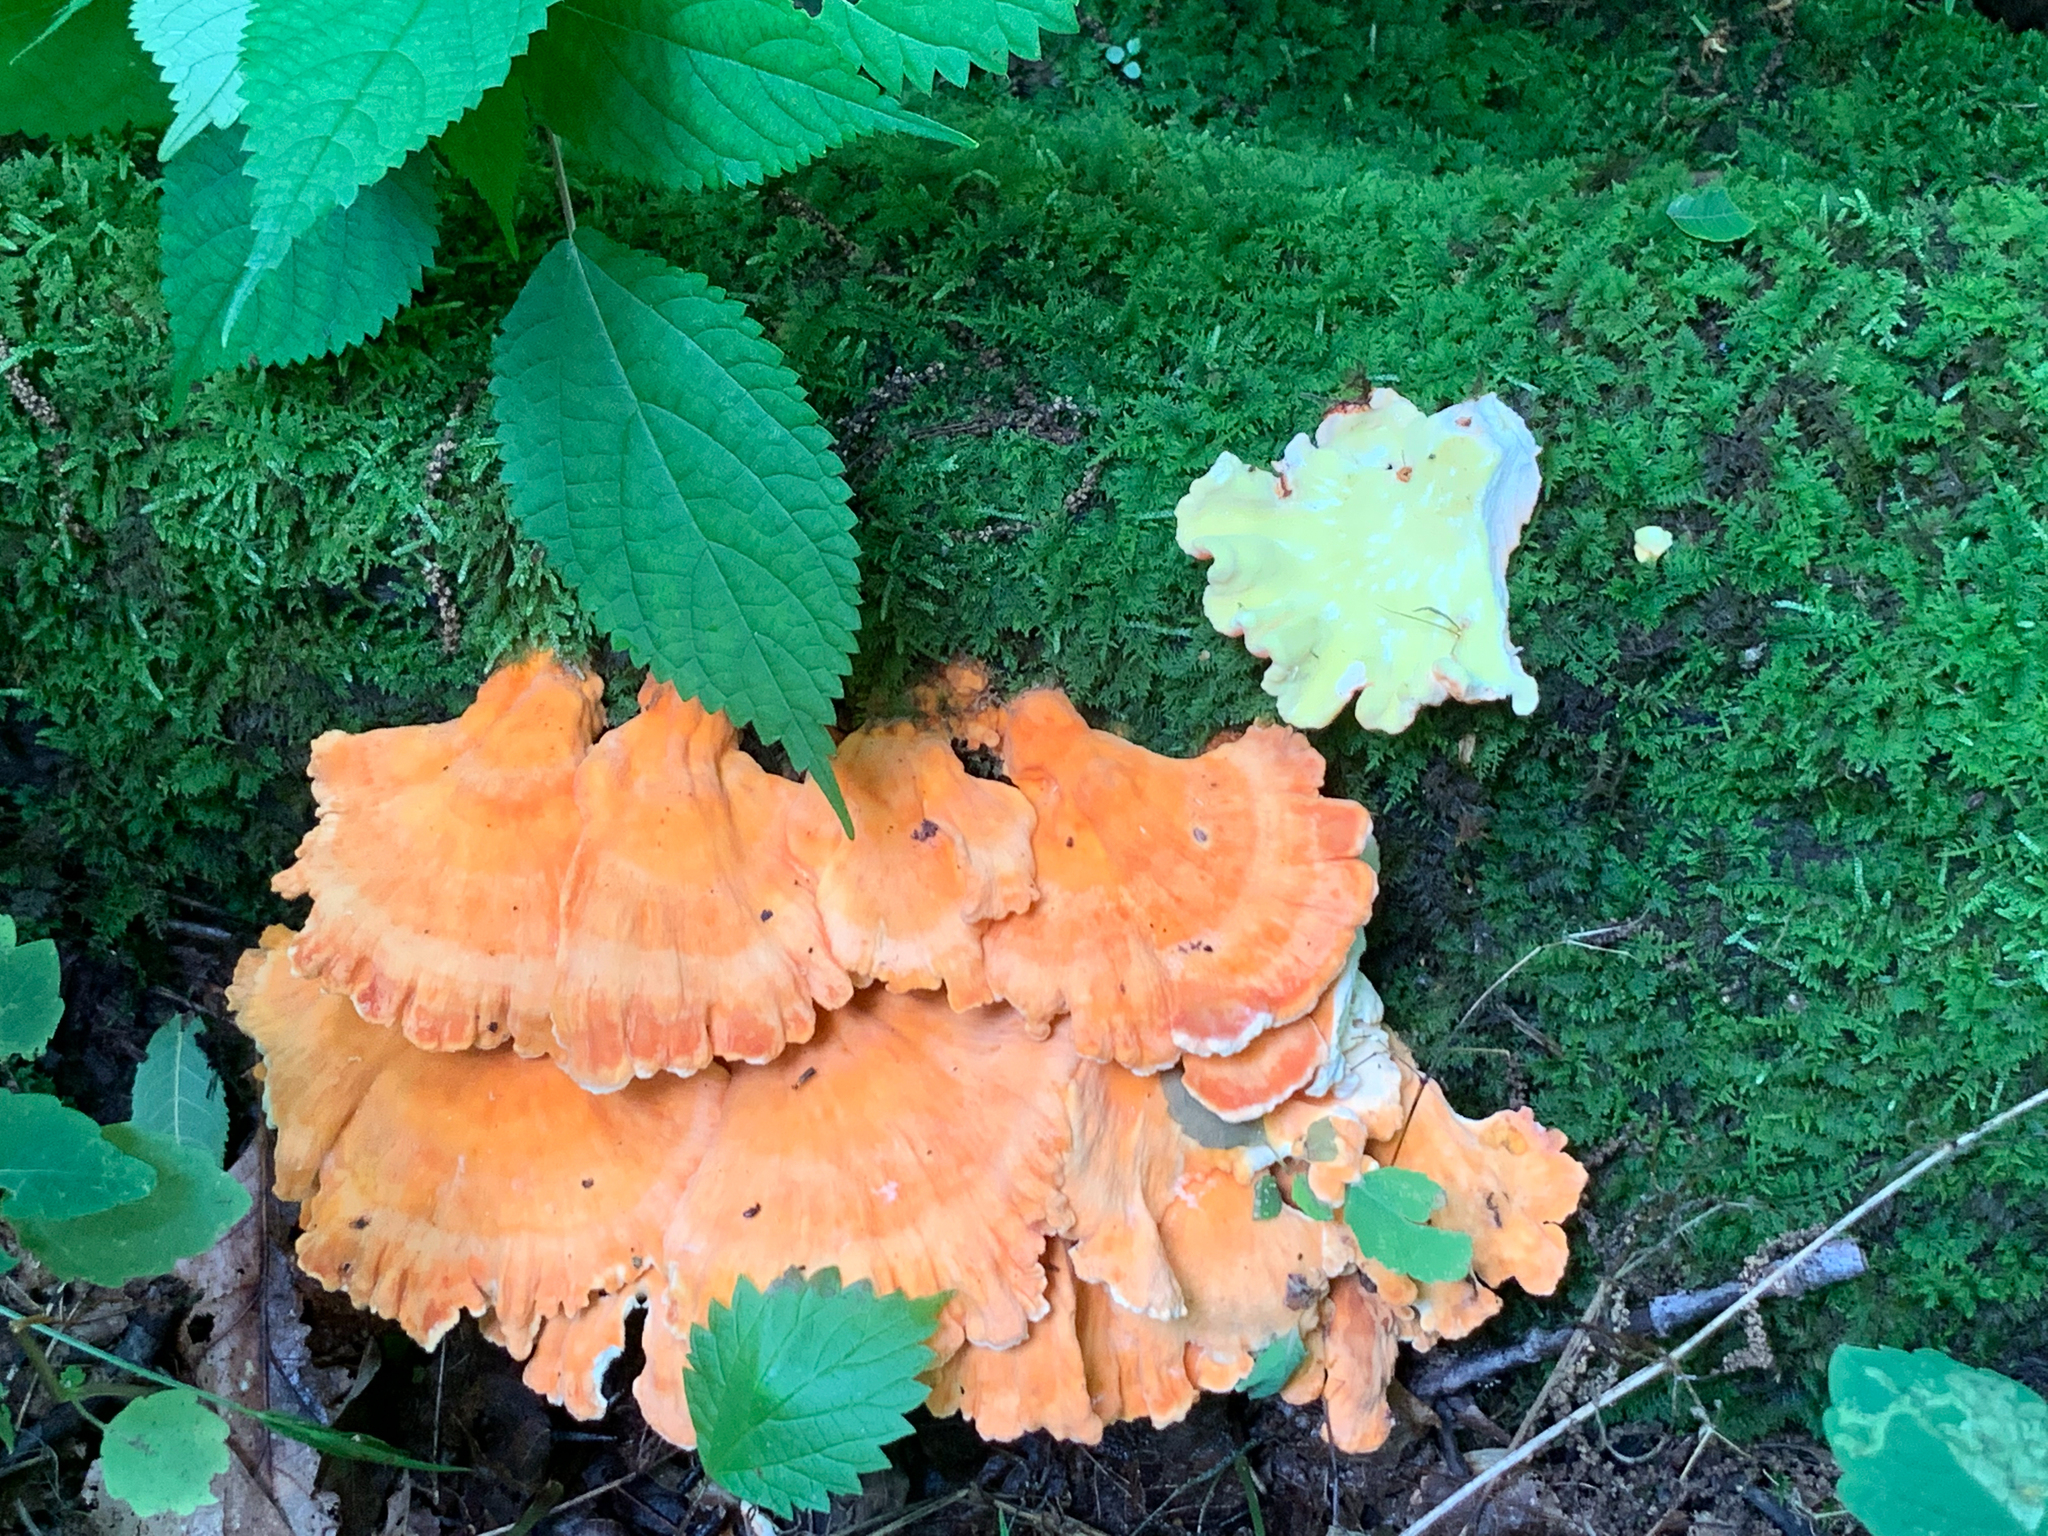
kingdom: Fungi
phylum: Basidiomycota
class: Agaricomycetes
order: Polyporales
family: Laetiporaceae
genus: Laetiporus
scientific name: Laetiporus sulphureus
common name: Chicken of the woods
